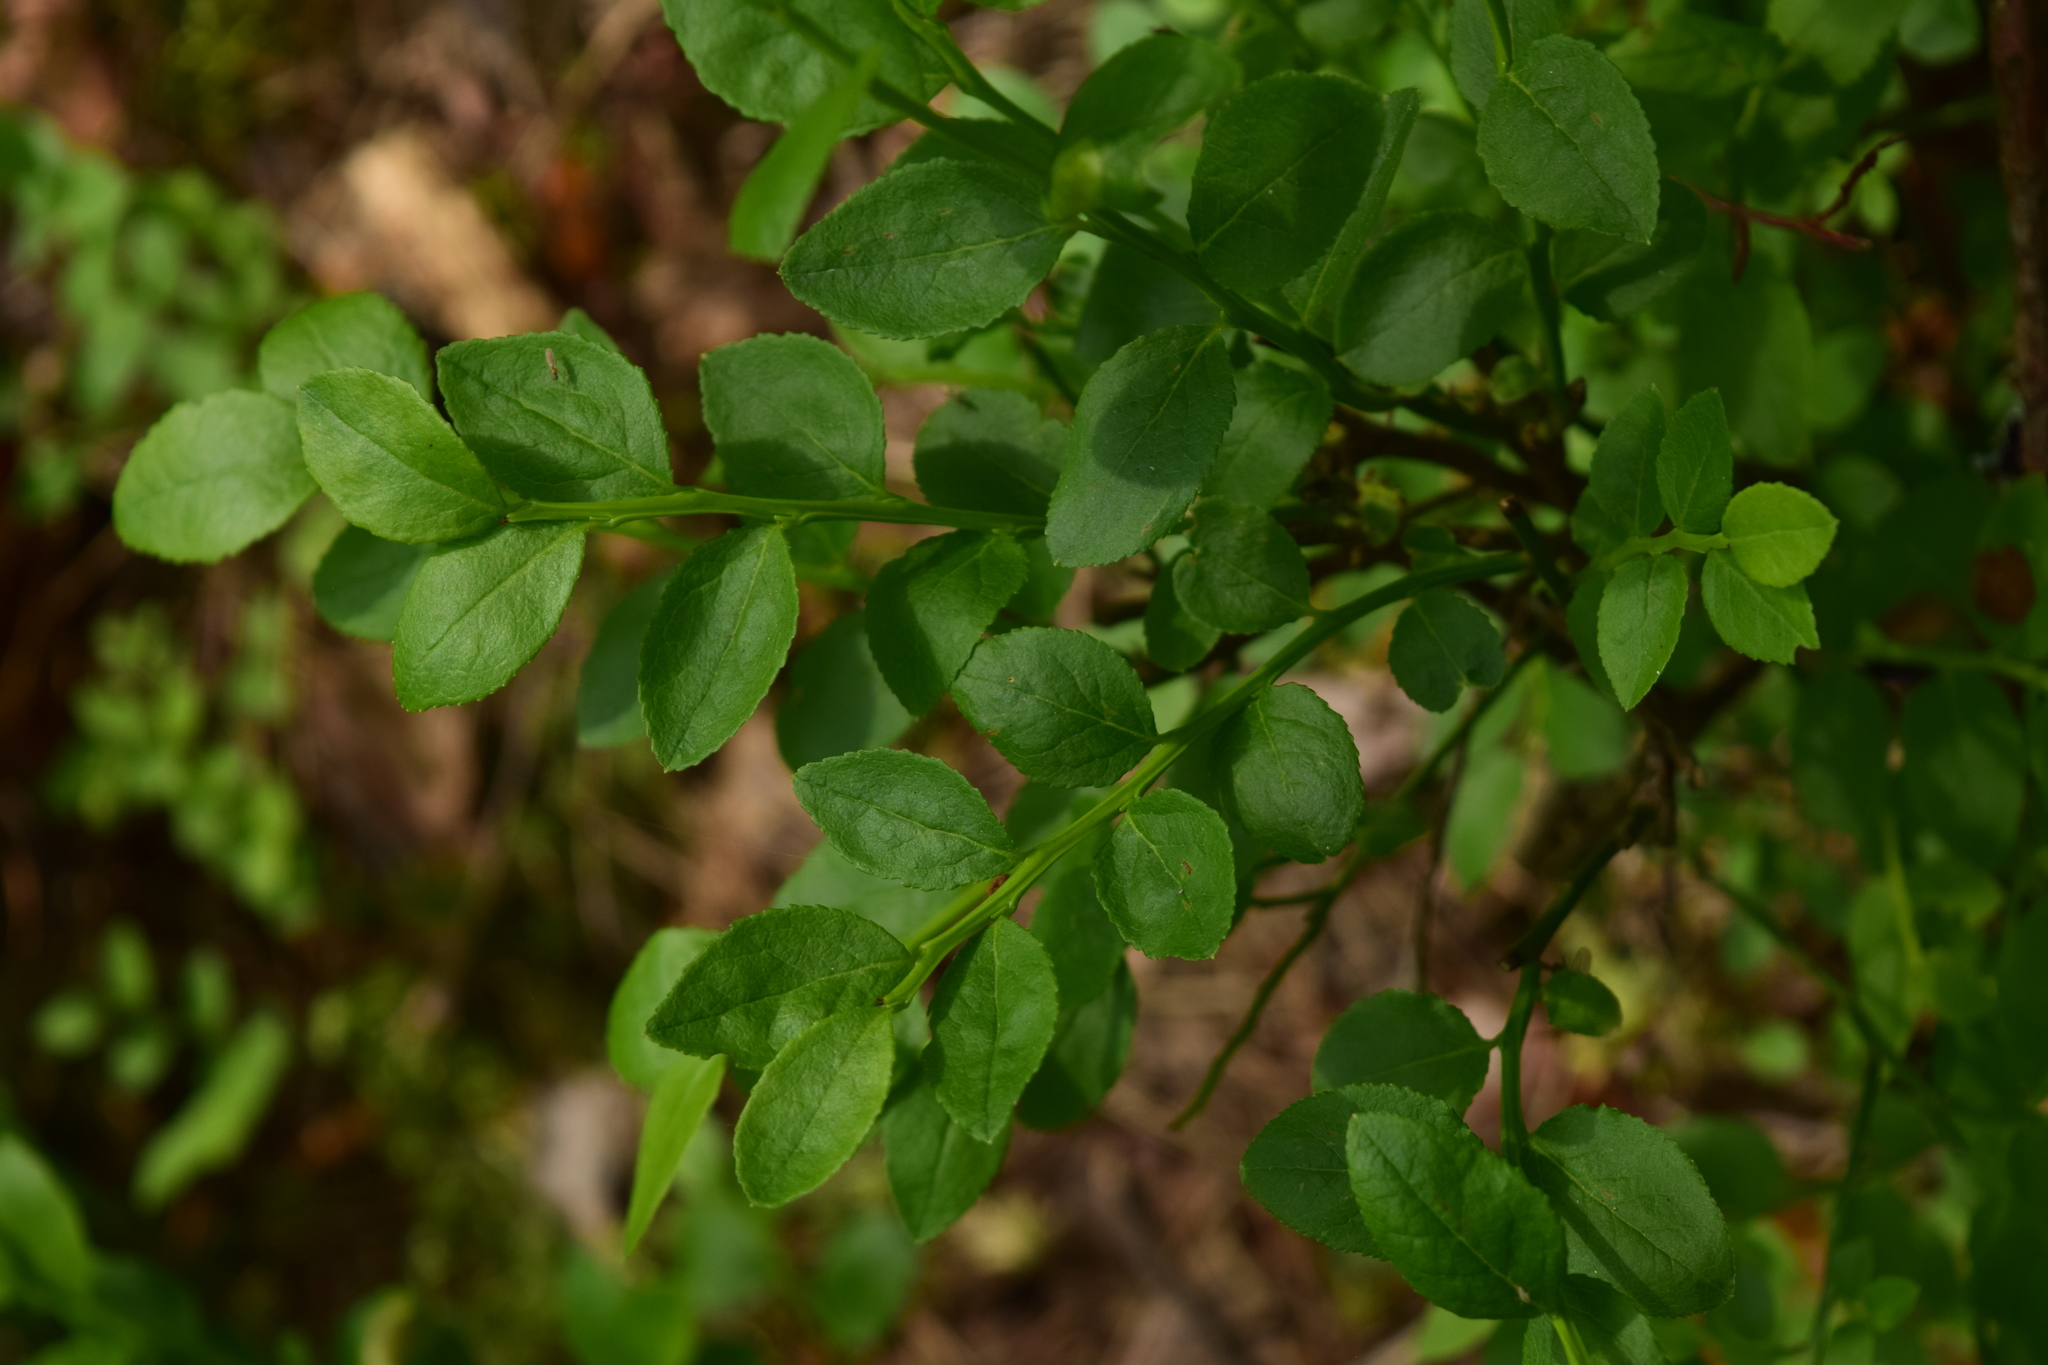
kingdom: Plantae
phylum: Tracheophyta
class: Magnoliopsida
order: Ericales
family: Ericaceae
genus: Vaccinium
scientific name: Vaccinium myrtillus
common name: Bilberry
